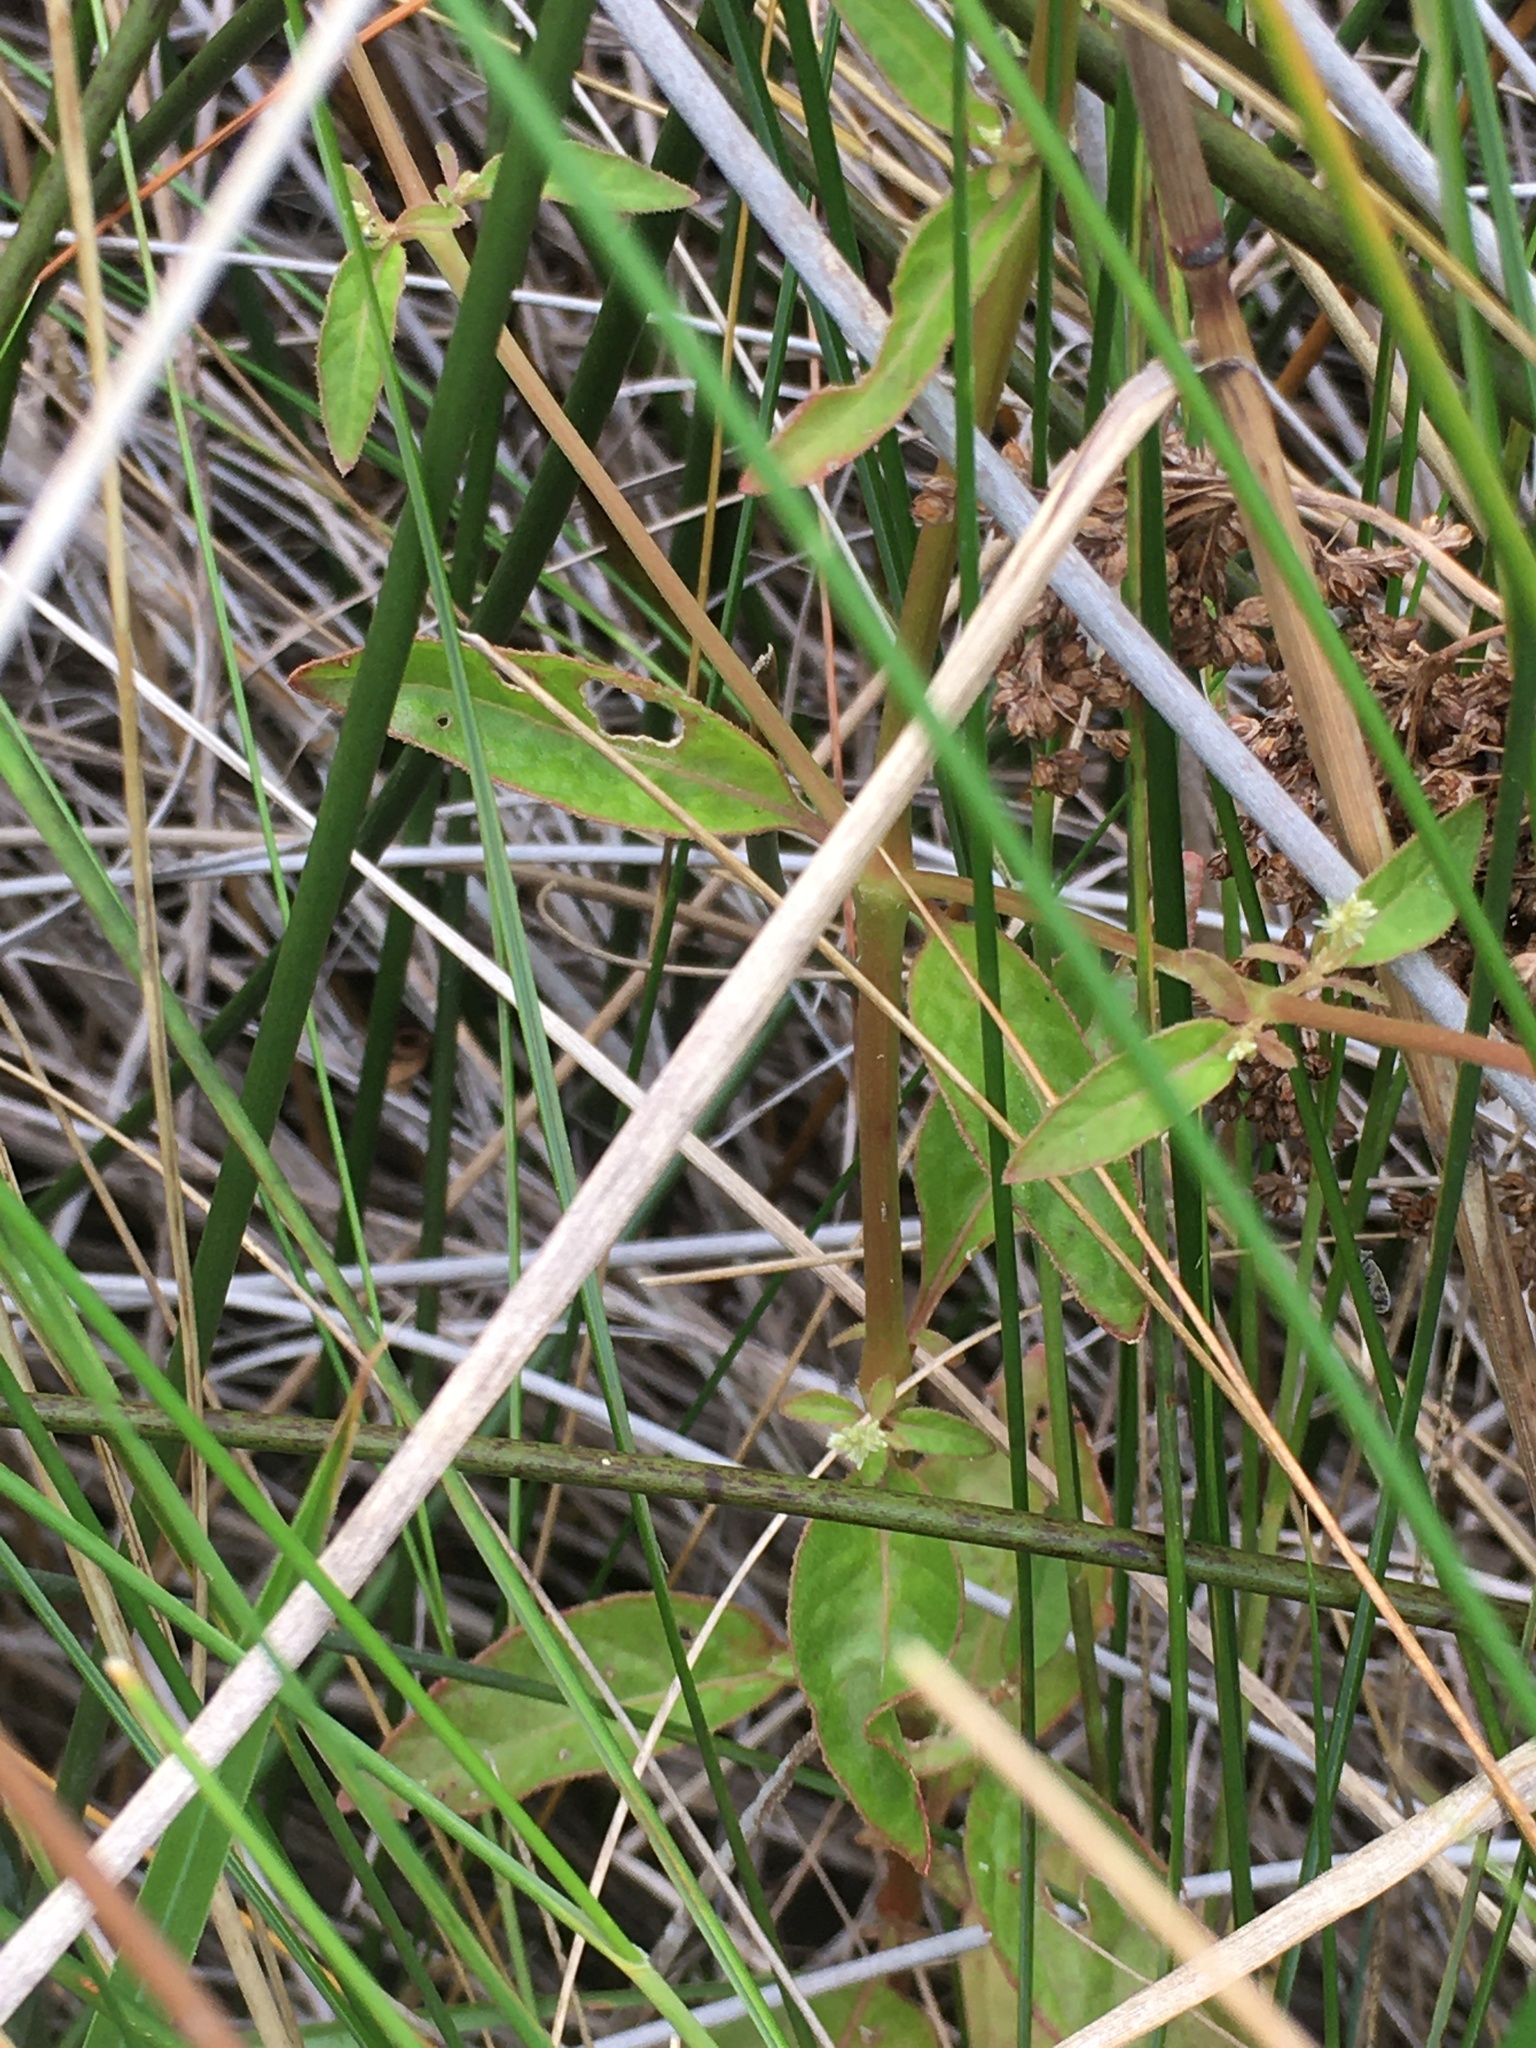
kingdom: Plantae
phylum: Tracheophyta
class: Magnoliopsida
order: Caryophyllales
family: Amaranthaceae
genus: Iresine
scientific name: Iresine rhizomatosa
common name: Juda's-bush
